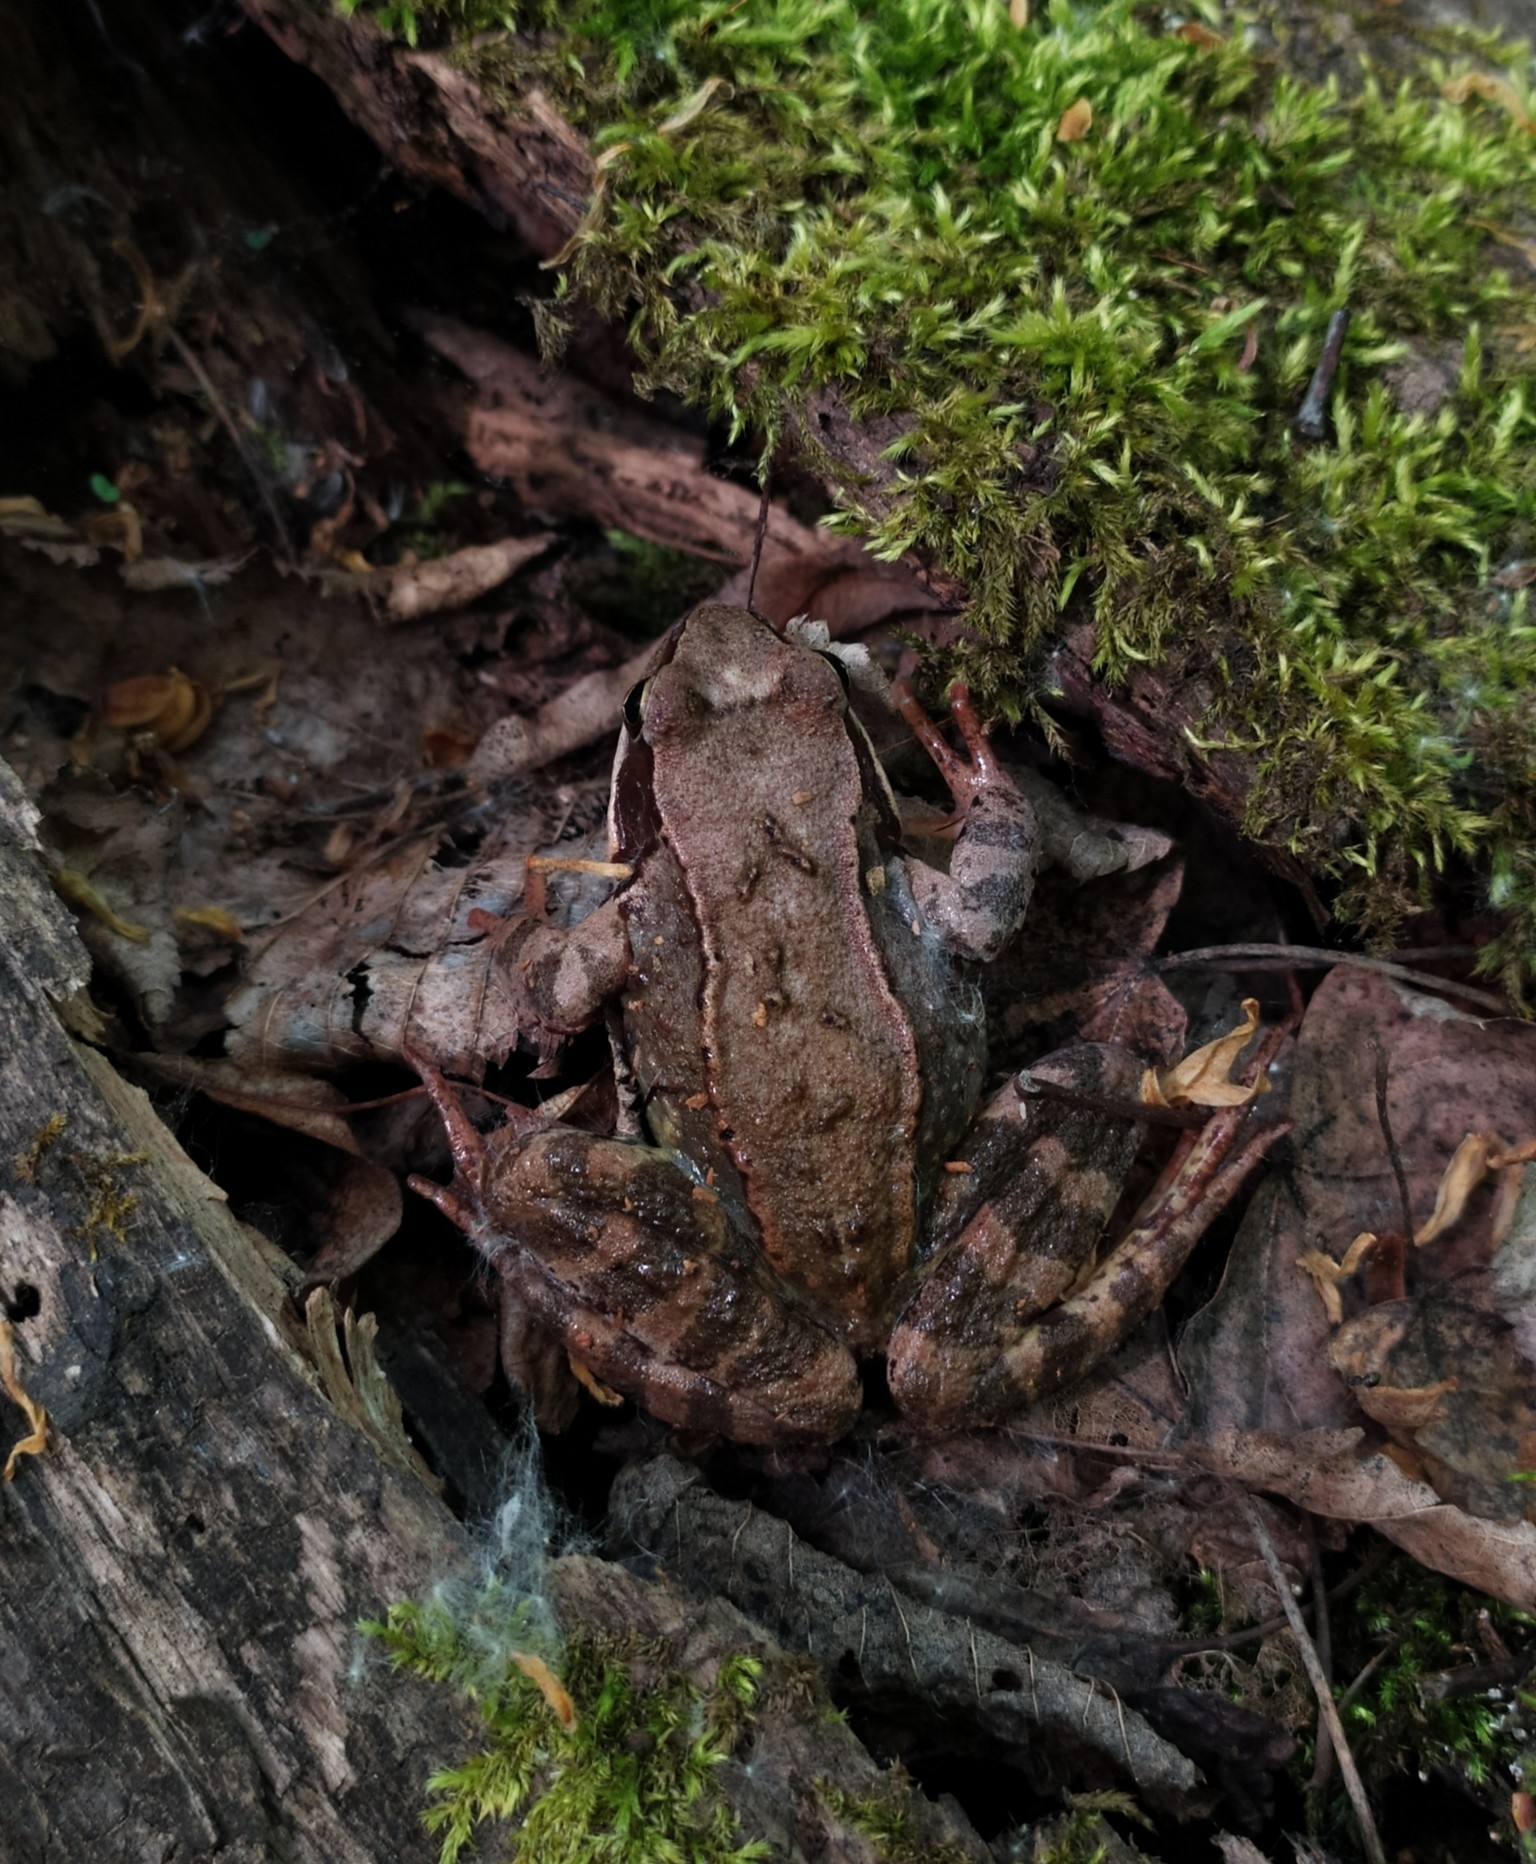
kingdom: Animalia
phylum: Chordata
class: Amphibia
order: Anura
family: Ranidae
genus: Rana
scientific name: Rana temporaria
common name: Common frog
